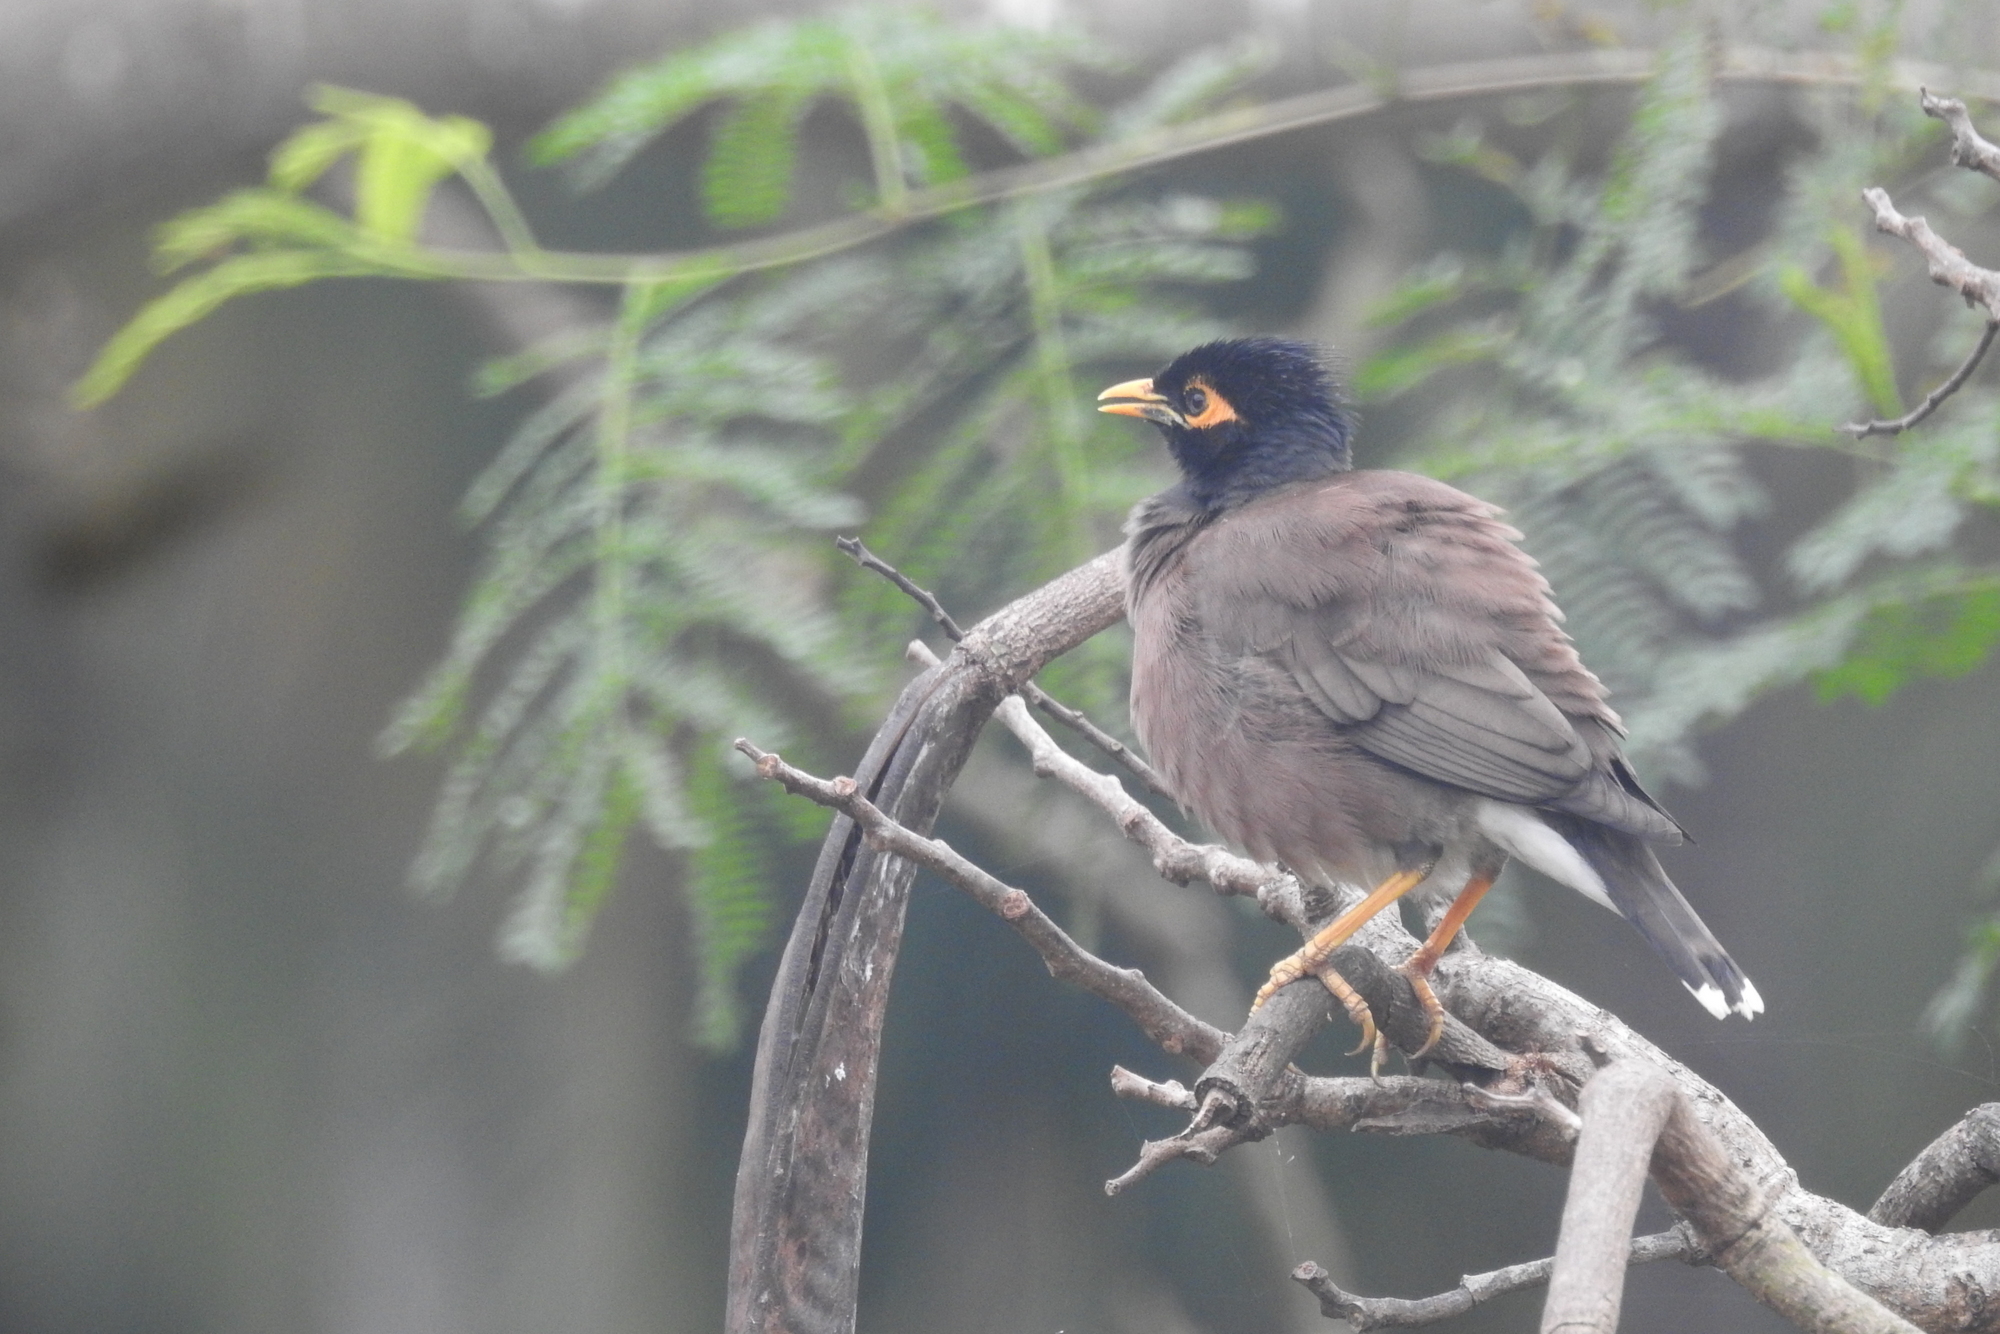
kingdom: Animalia
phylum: Chordata
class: Aves
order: Passeriformes
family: Sturnidae
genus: Acridotheres
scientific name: Acridotheres tristis
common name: Common myna
